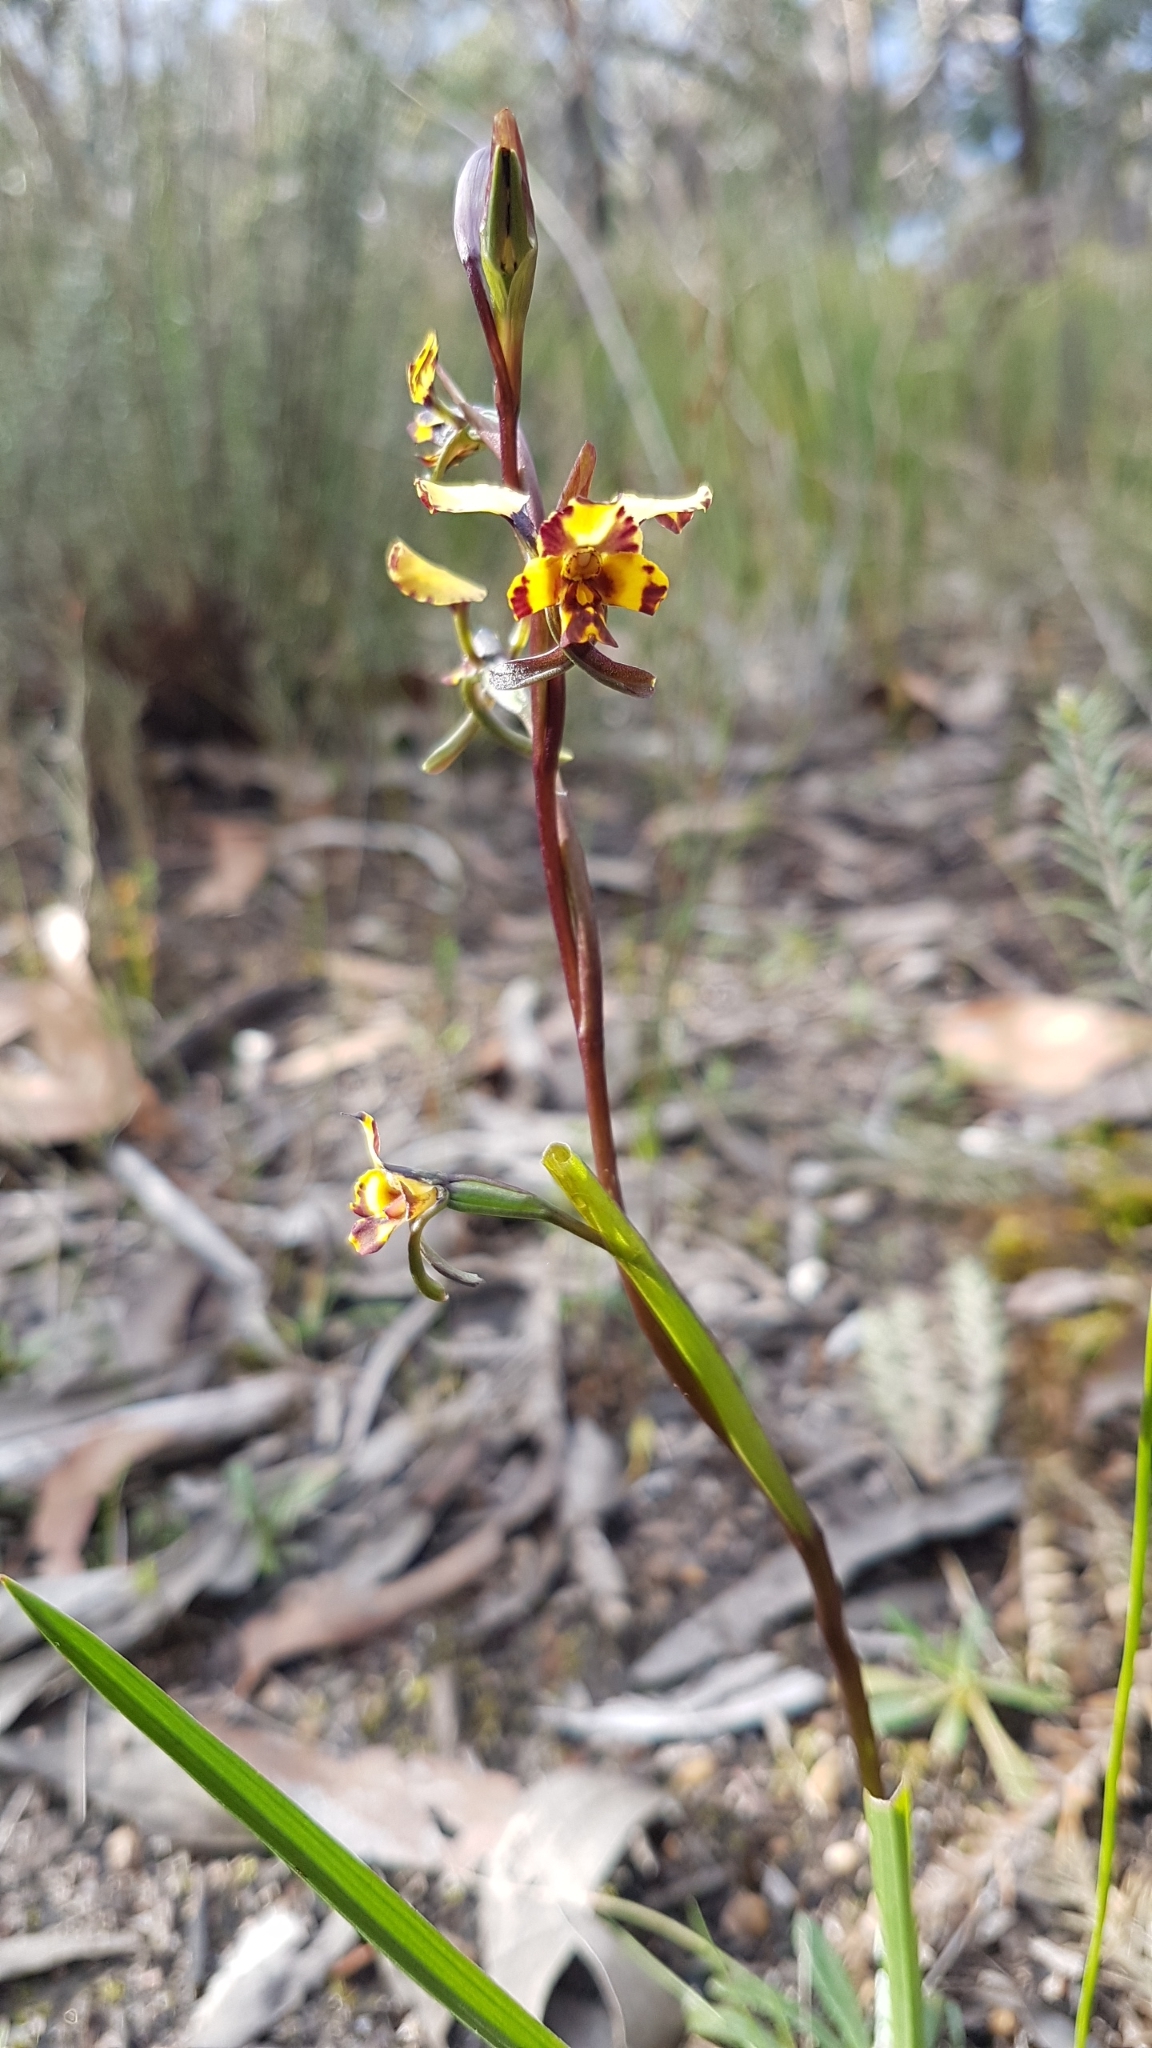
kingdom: Plantae
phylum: Tracheophyta
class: Liliopsida
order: Asparagales
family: Orchidaceae
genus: Diuris
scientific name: Diuris pardina
